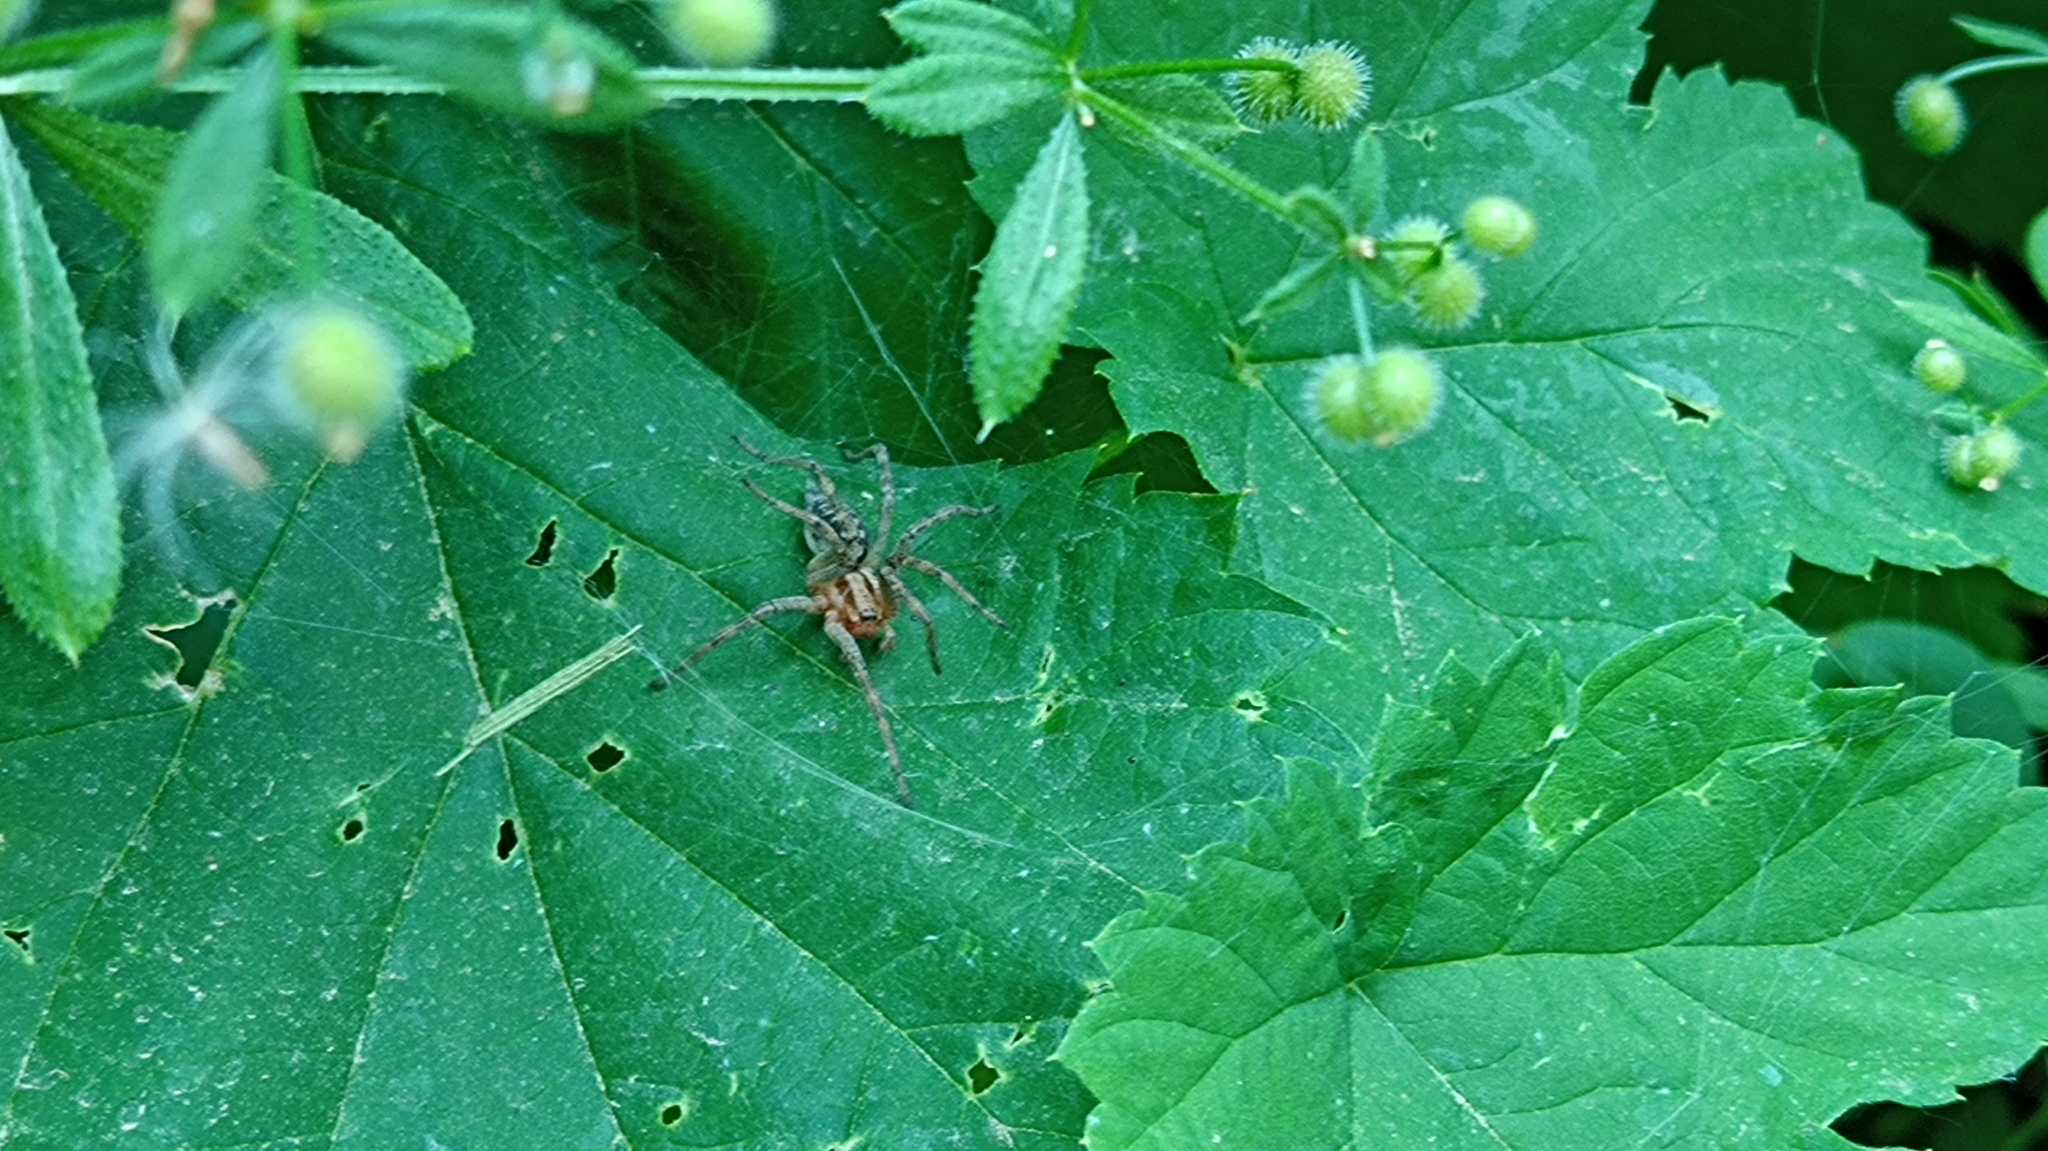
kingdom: Animalia
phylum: Arthropoda
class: Arachnida
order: Araneae
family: Agelenidae
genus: Agelena
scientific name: Agelena labyrinthica
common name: Labyrinth spider
